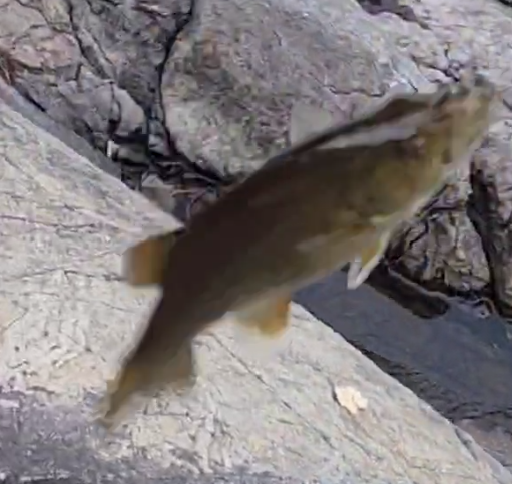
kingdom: Animalia
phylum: Chordata
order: Perciformes
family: Centrarchidae
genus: Micropterus
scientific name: Micropterus dolomieu
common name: Smallmouth bass
